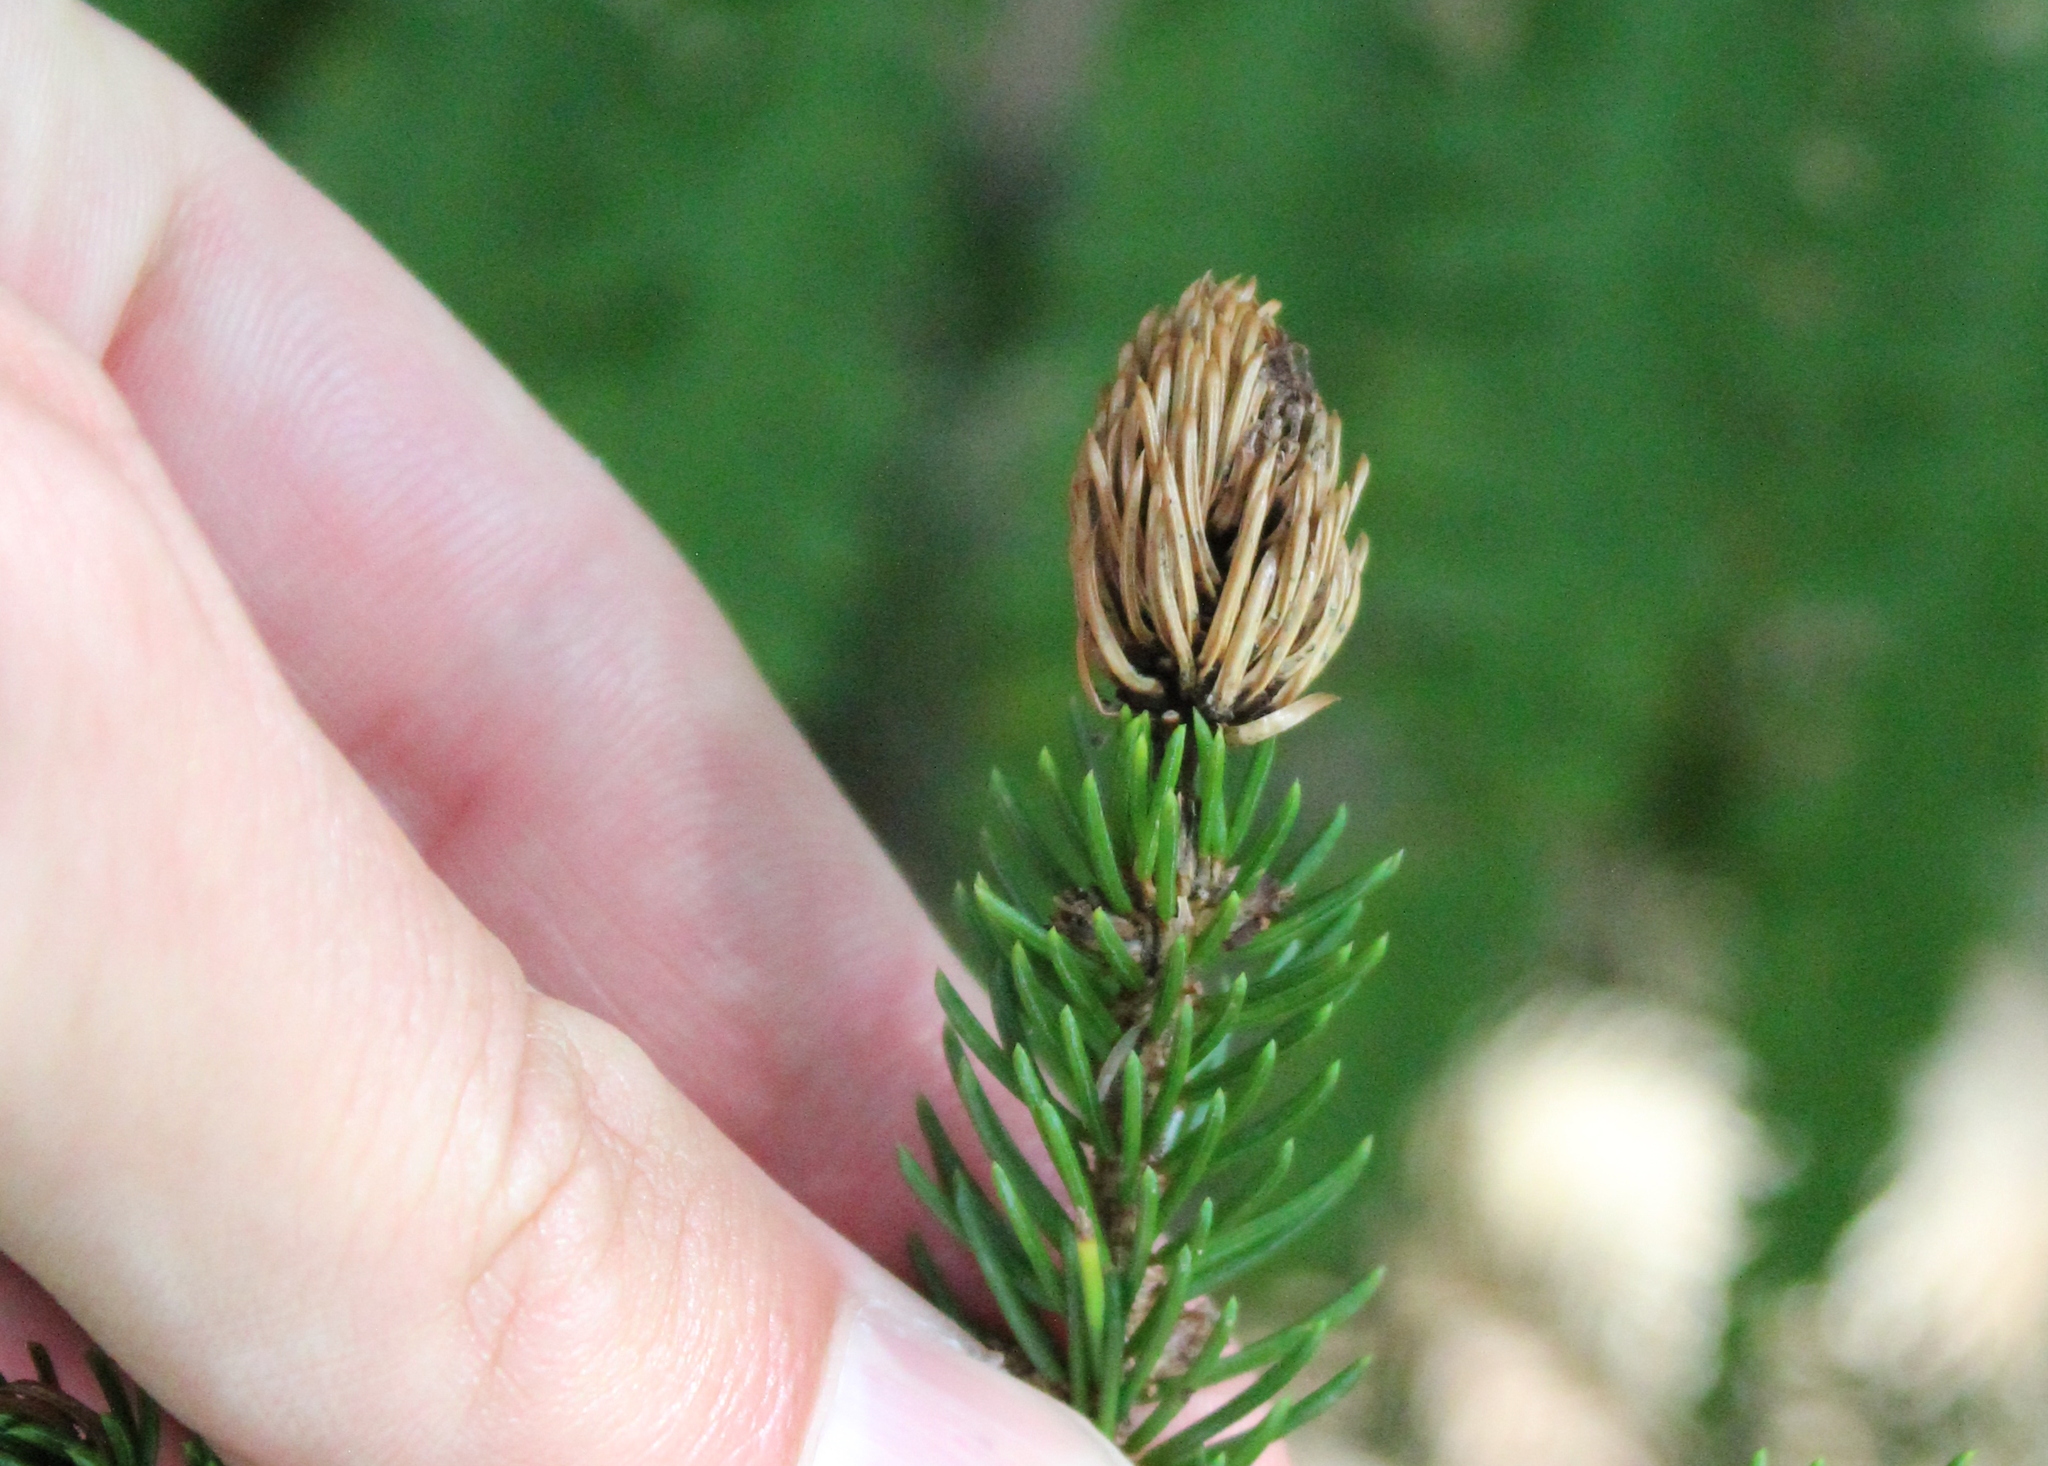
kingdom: Animalia
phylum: Arthropoda
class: Insecta
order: Hemiptera
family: Adelgidae
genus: Adelges
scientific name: Adelges abietis
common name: Eastern spruce gall adelgid
